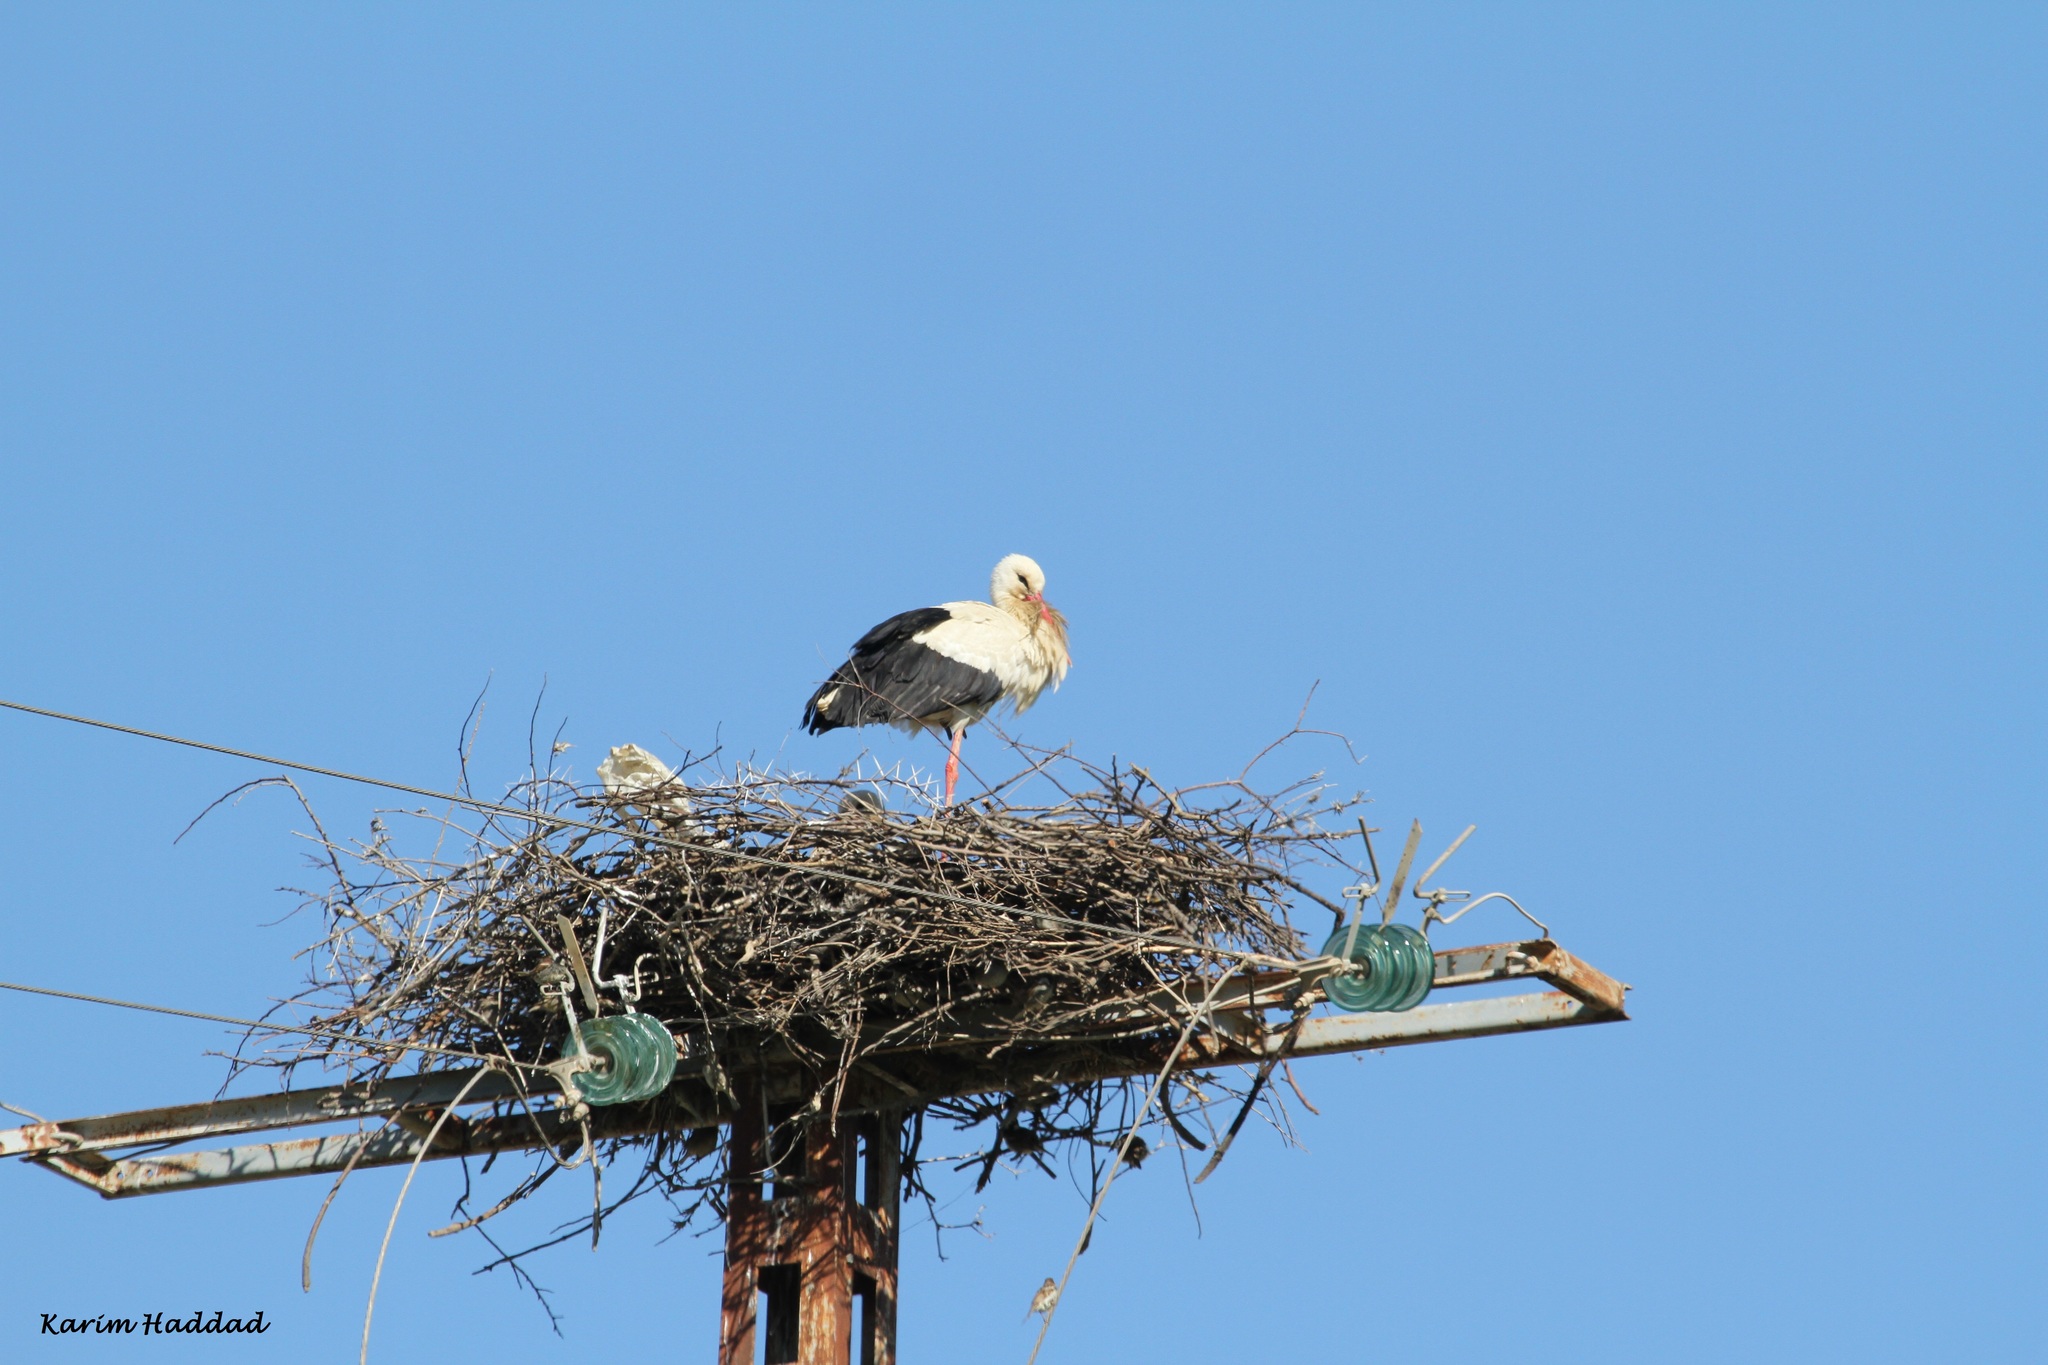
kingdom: Animalia
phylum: Chordata
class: Aves
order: Ciconiiformes
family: Ciconiidae
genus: Ciconia
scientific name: Ciconia ciconia
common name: White stork
